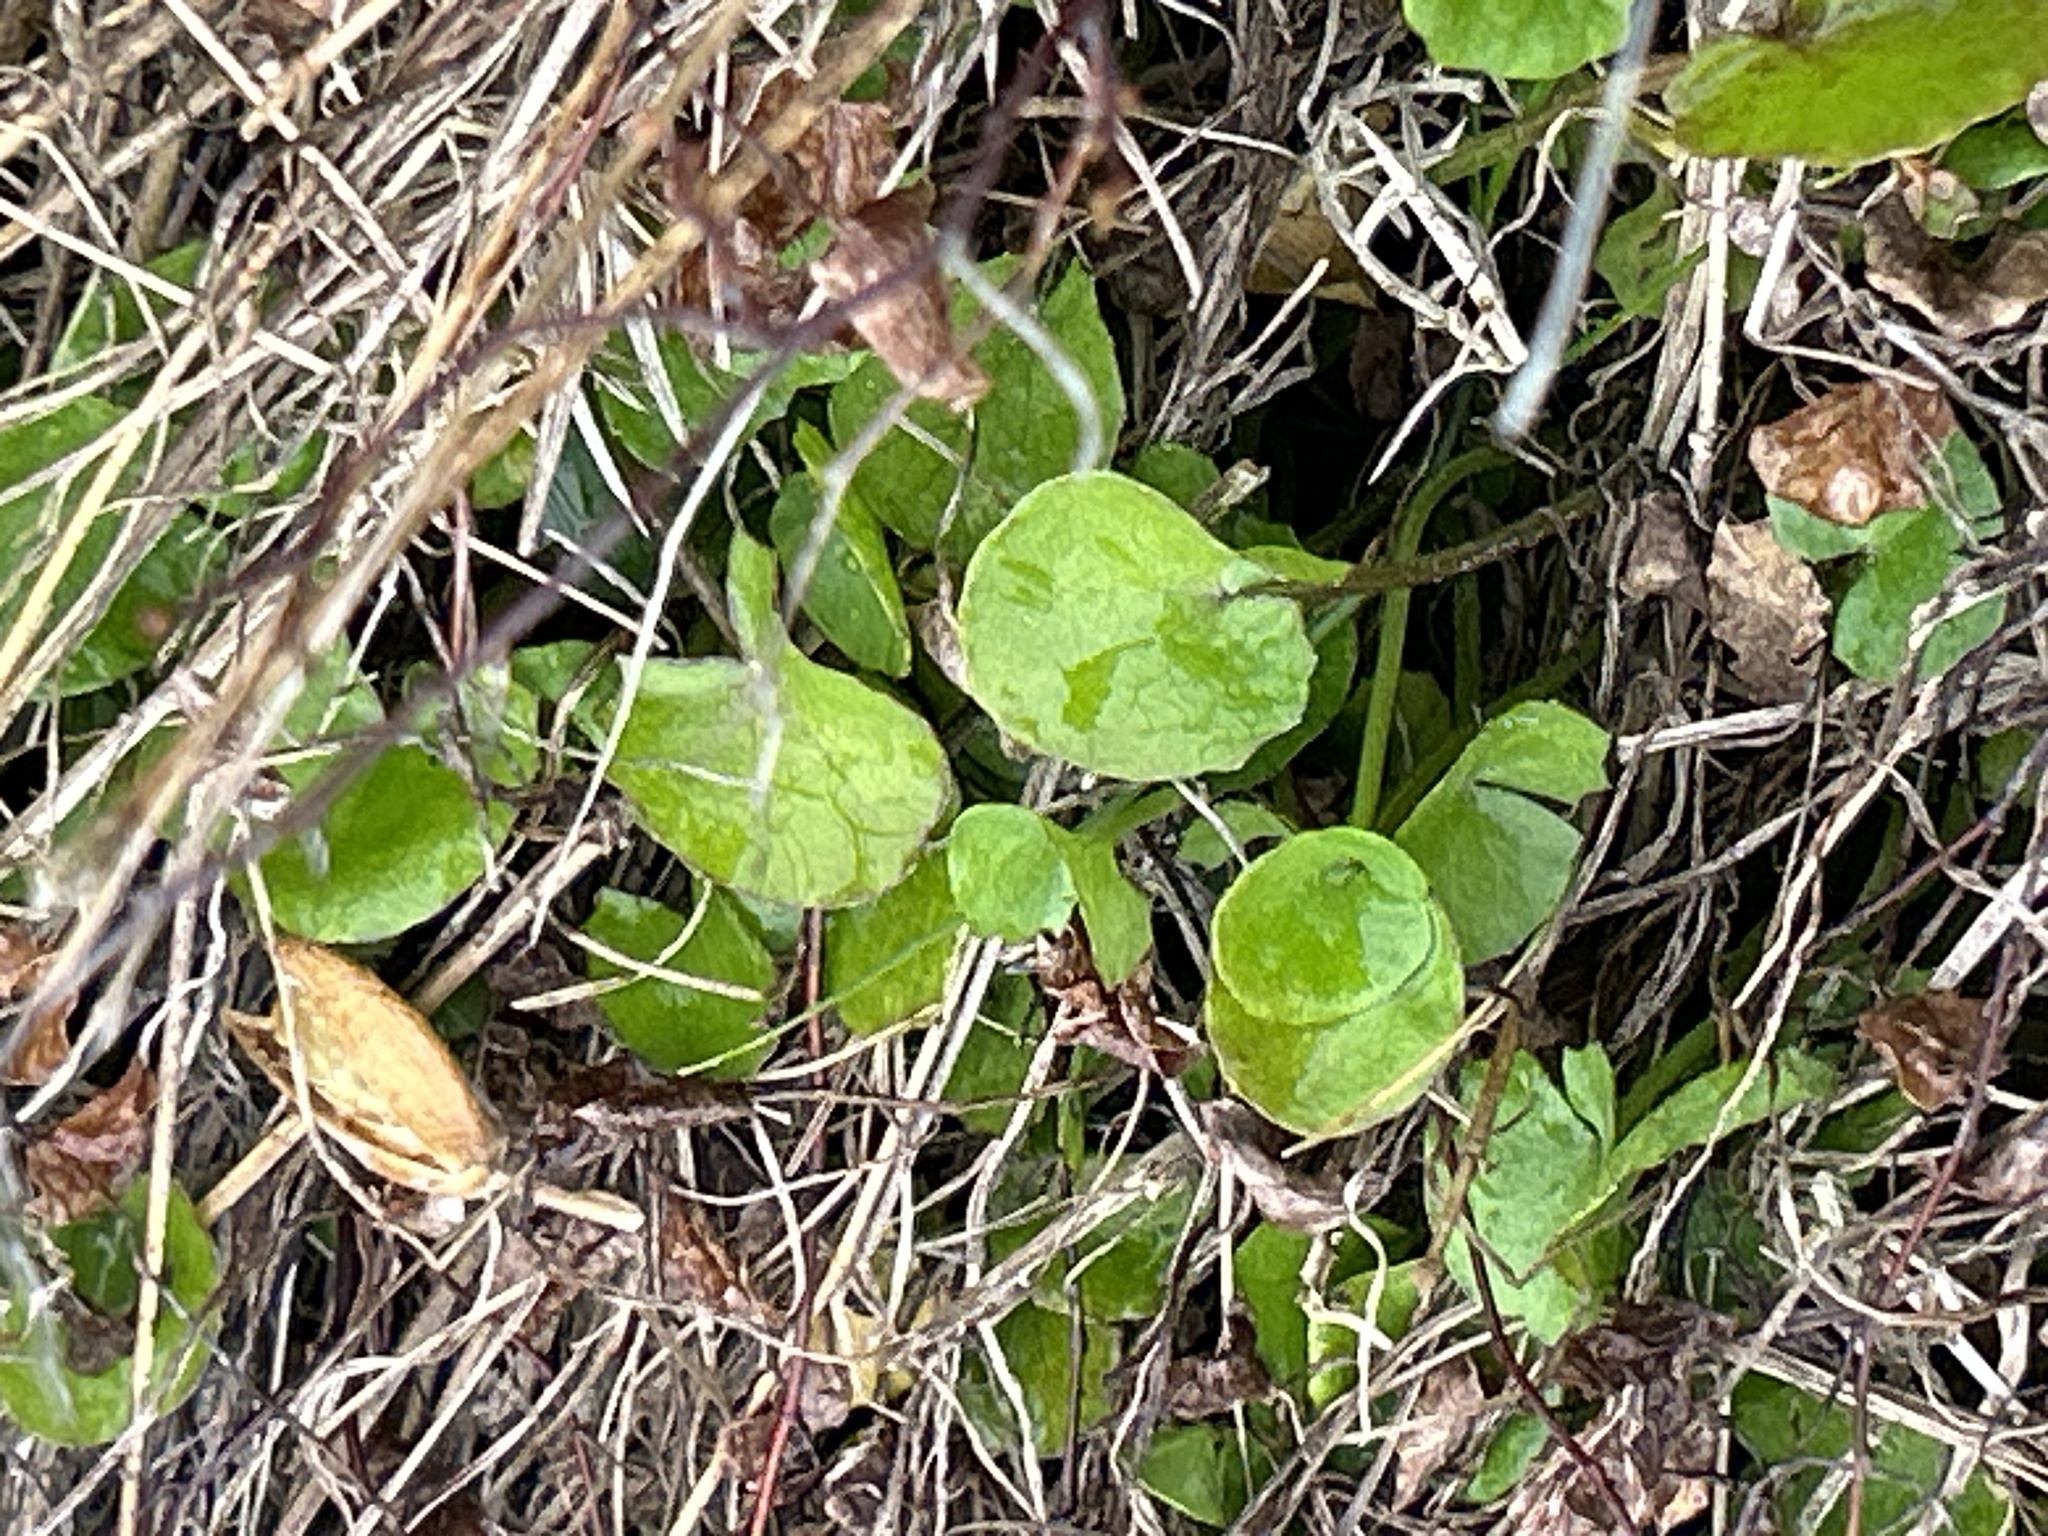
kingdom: Plantae
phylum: Tracheophyta
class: Magnoliopsida
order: Apiales
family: Apiaceae
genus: Centella
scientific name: Centella uniflora
